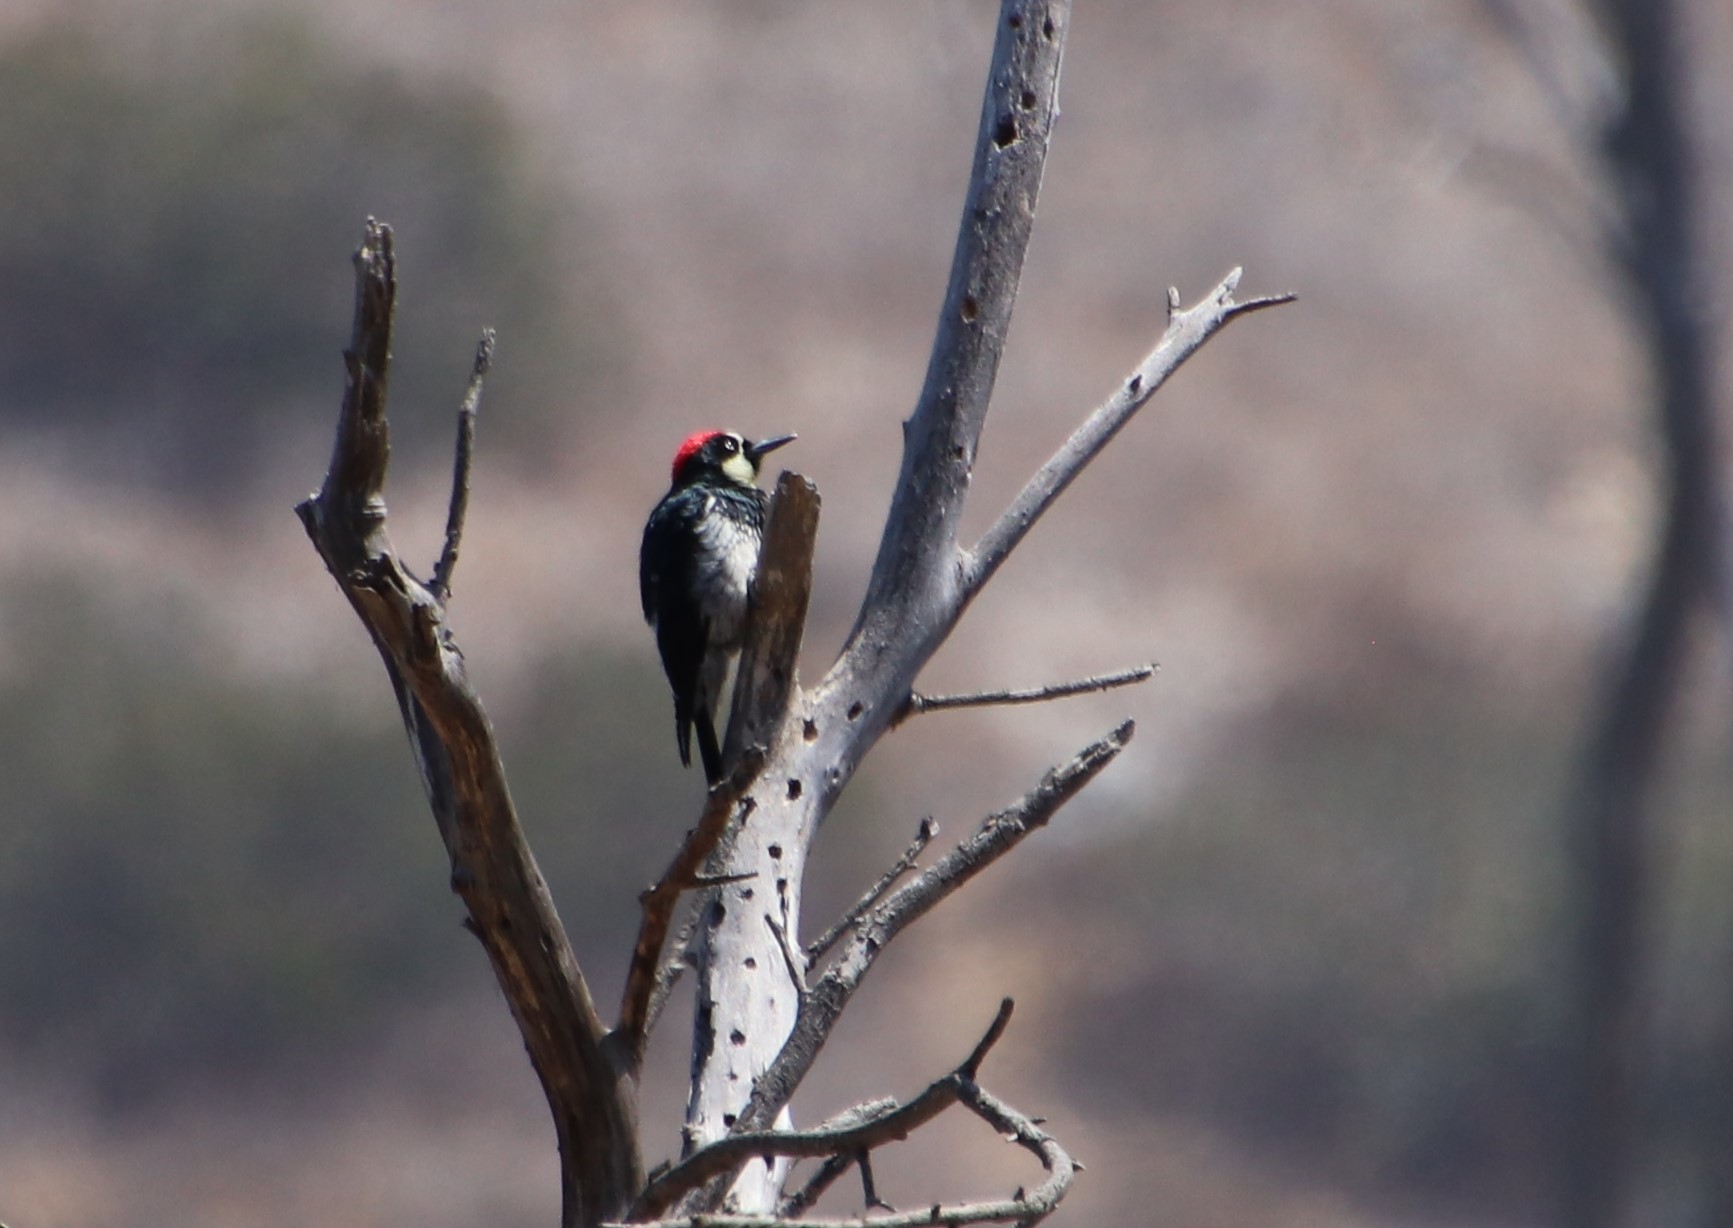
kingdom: Animalia
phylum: Chordata
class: Aves
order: Piciformes
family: Picidae
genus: Melanerpes
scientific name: Melanerpes formicivorus
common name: Acorn woodpecker
